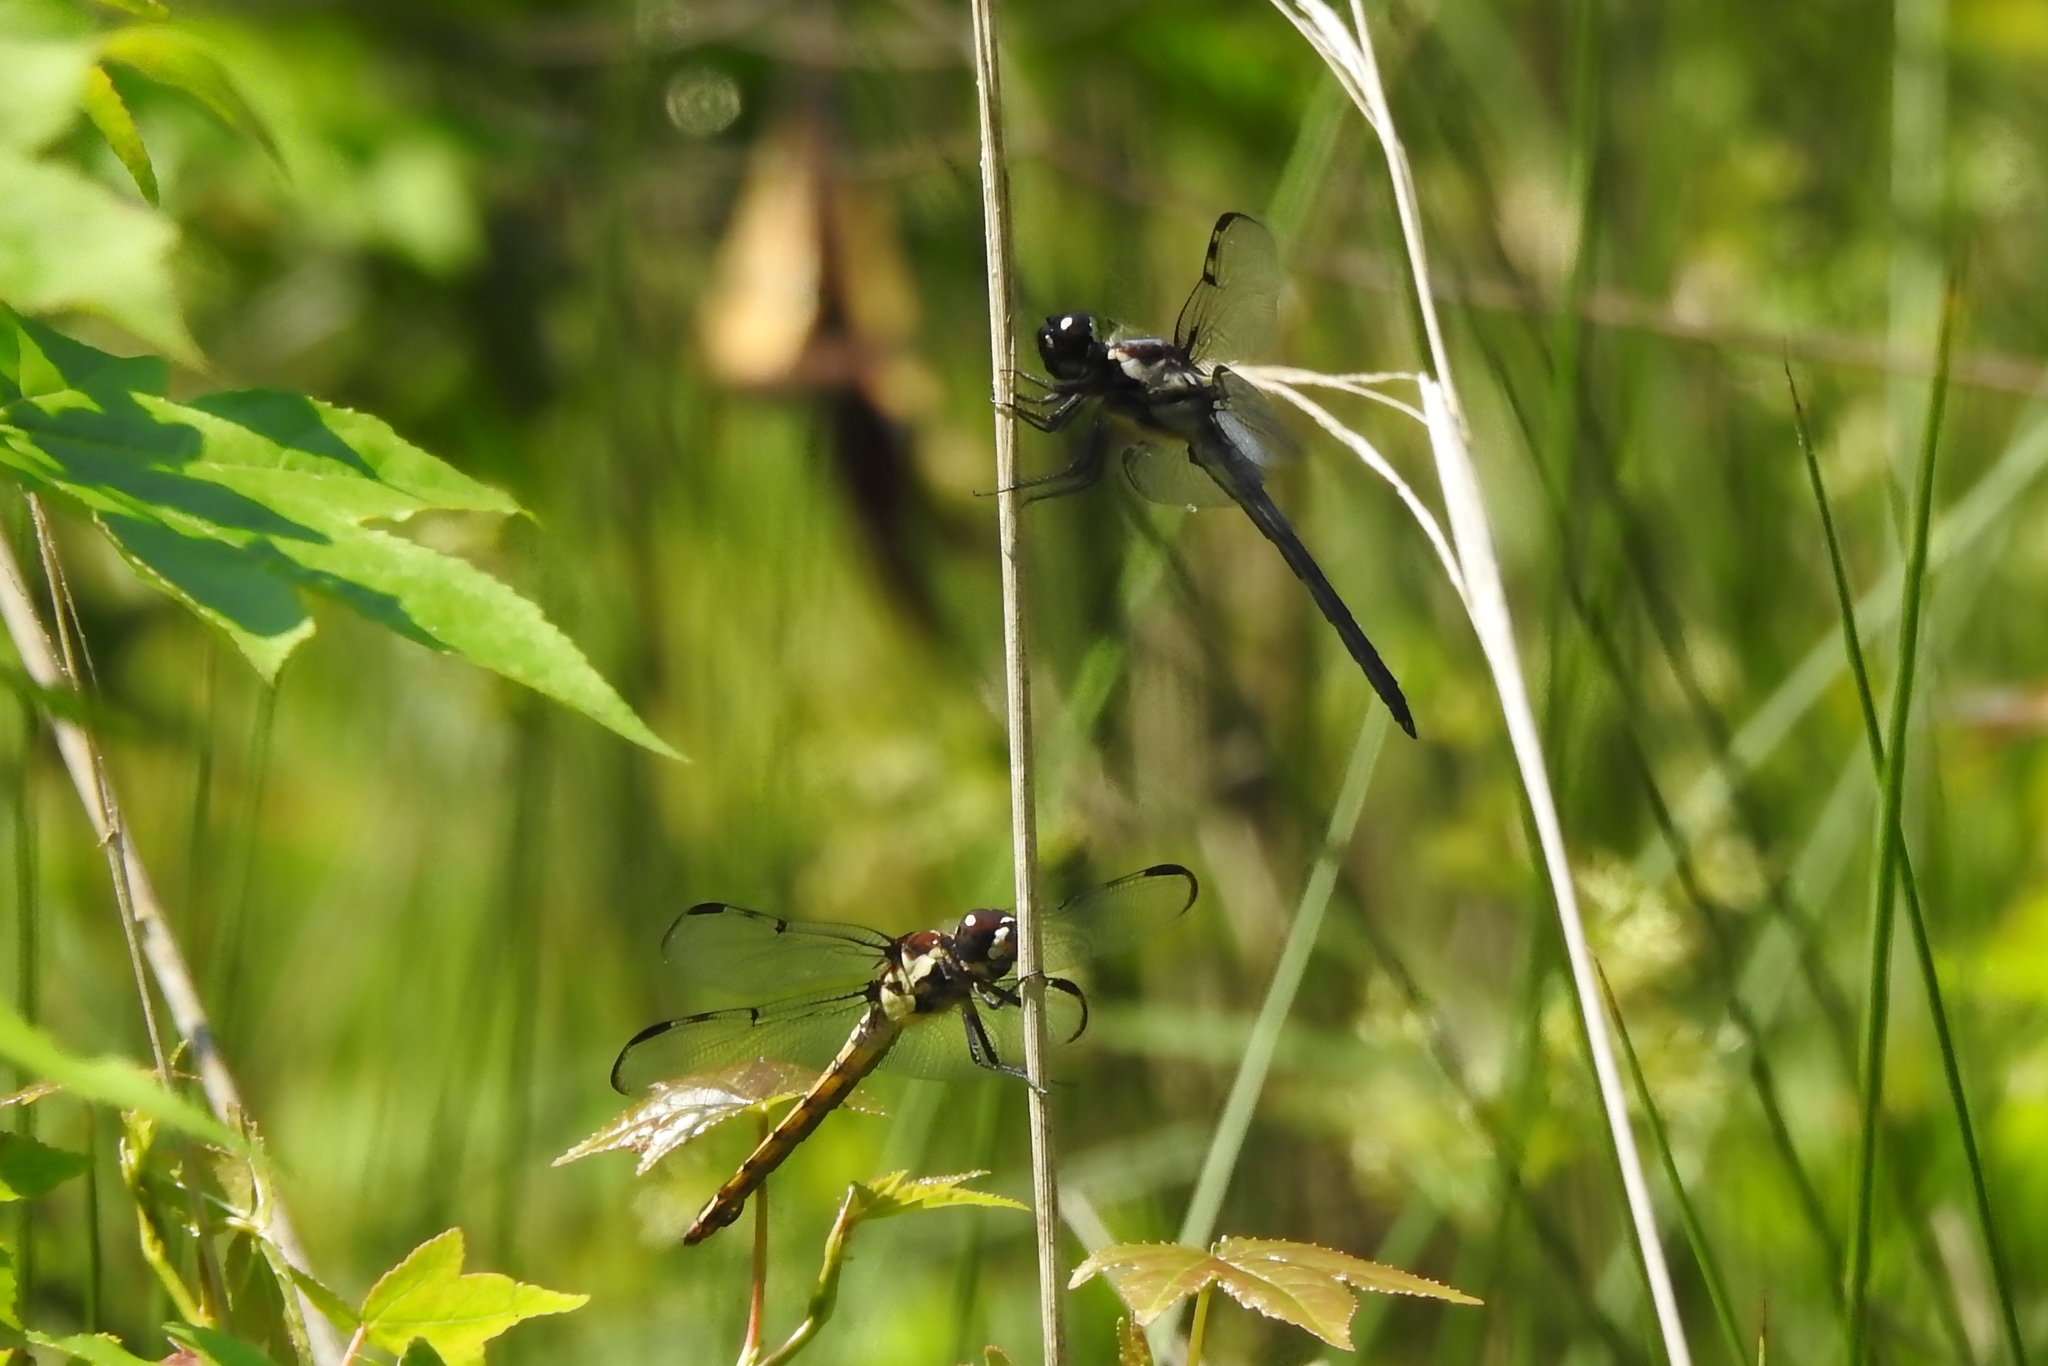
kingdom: Animalia
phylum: Arthropoda
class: Insecta
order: Odonata
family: Libellulidae
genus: Libellula
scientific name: Libellula axilena
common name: Bar-winged skimmer
